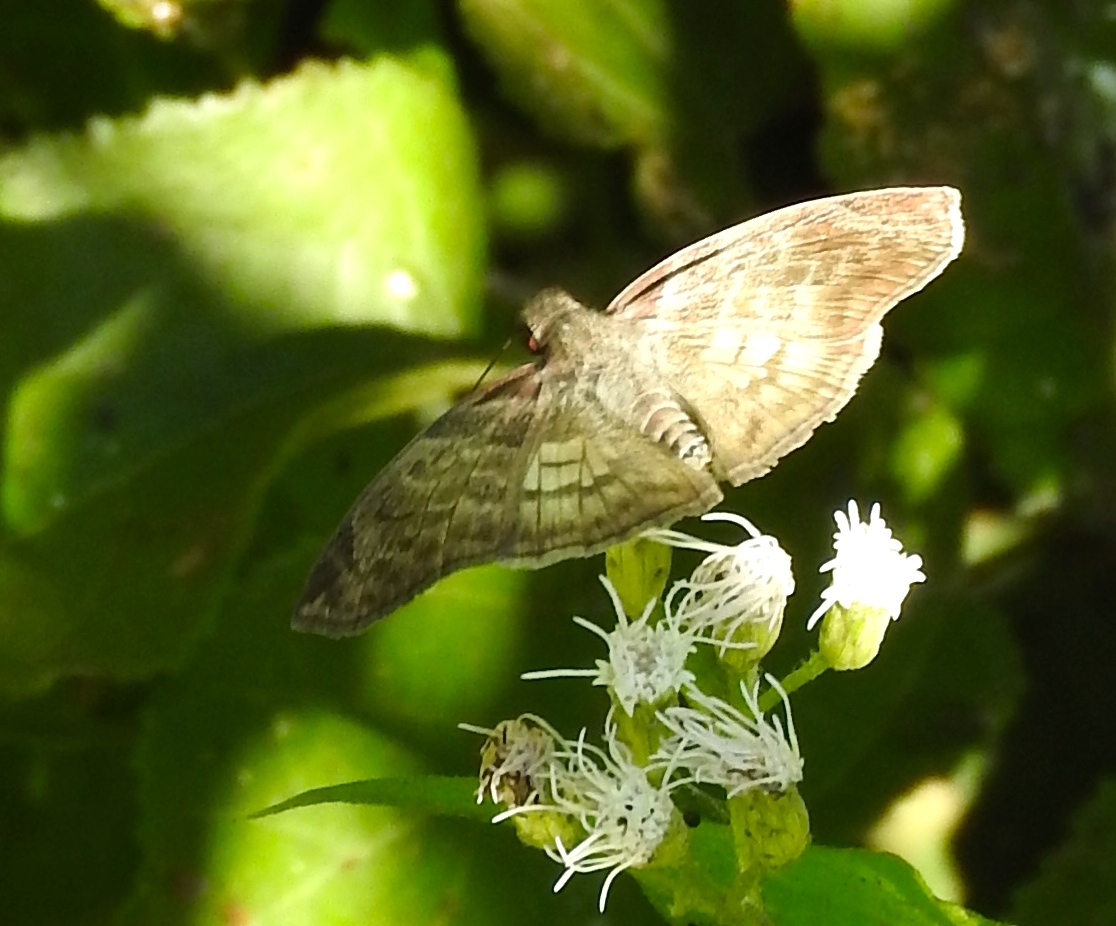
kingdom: Animalia
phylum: Arthropoda
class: Insecta
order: Lepidoptera
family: Hesperiidae
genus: Mylon
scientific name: Mylon pelopidas
